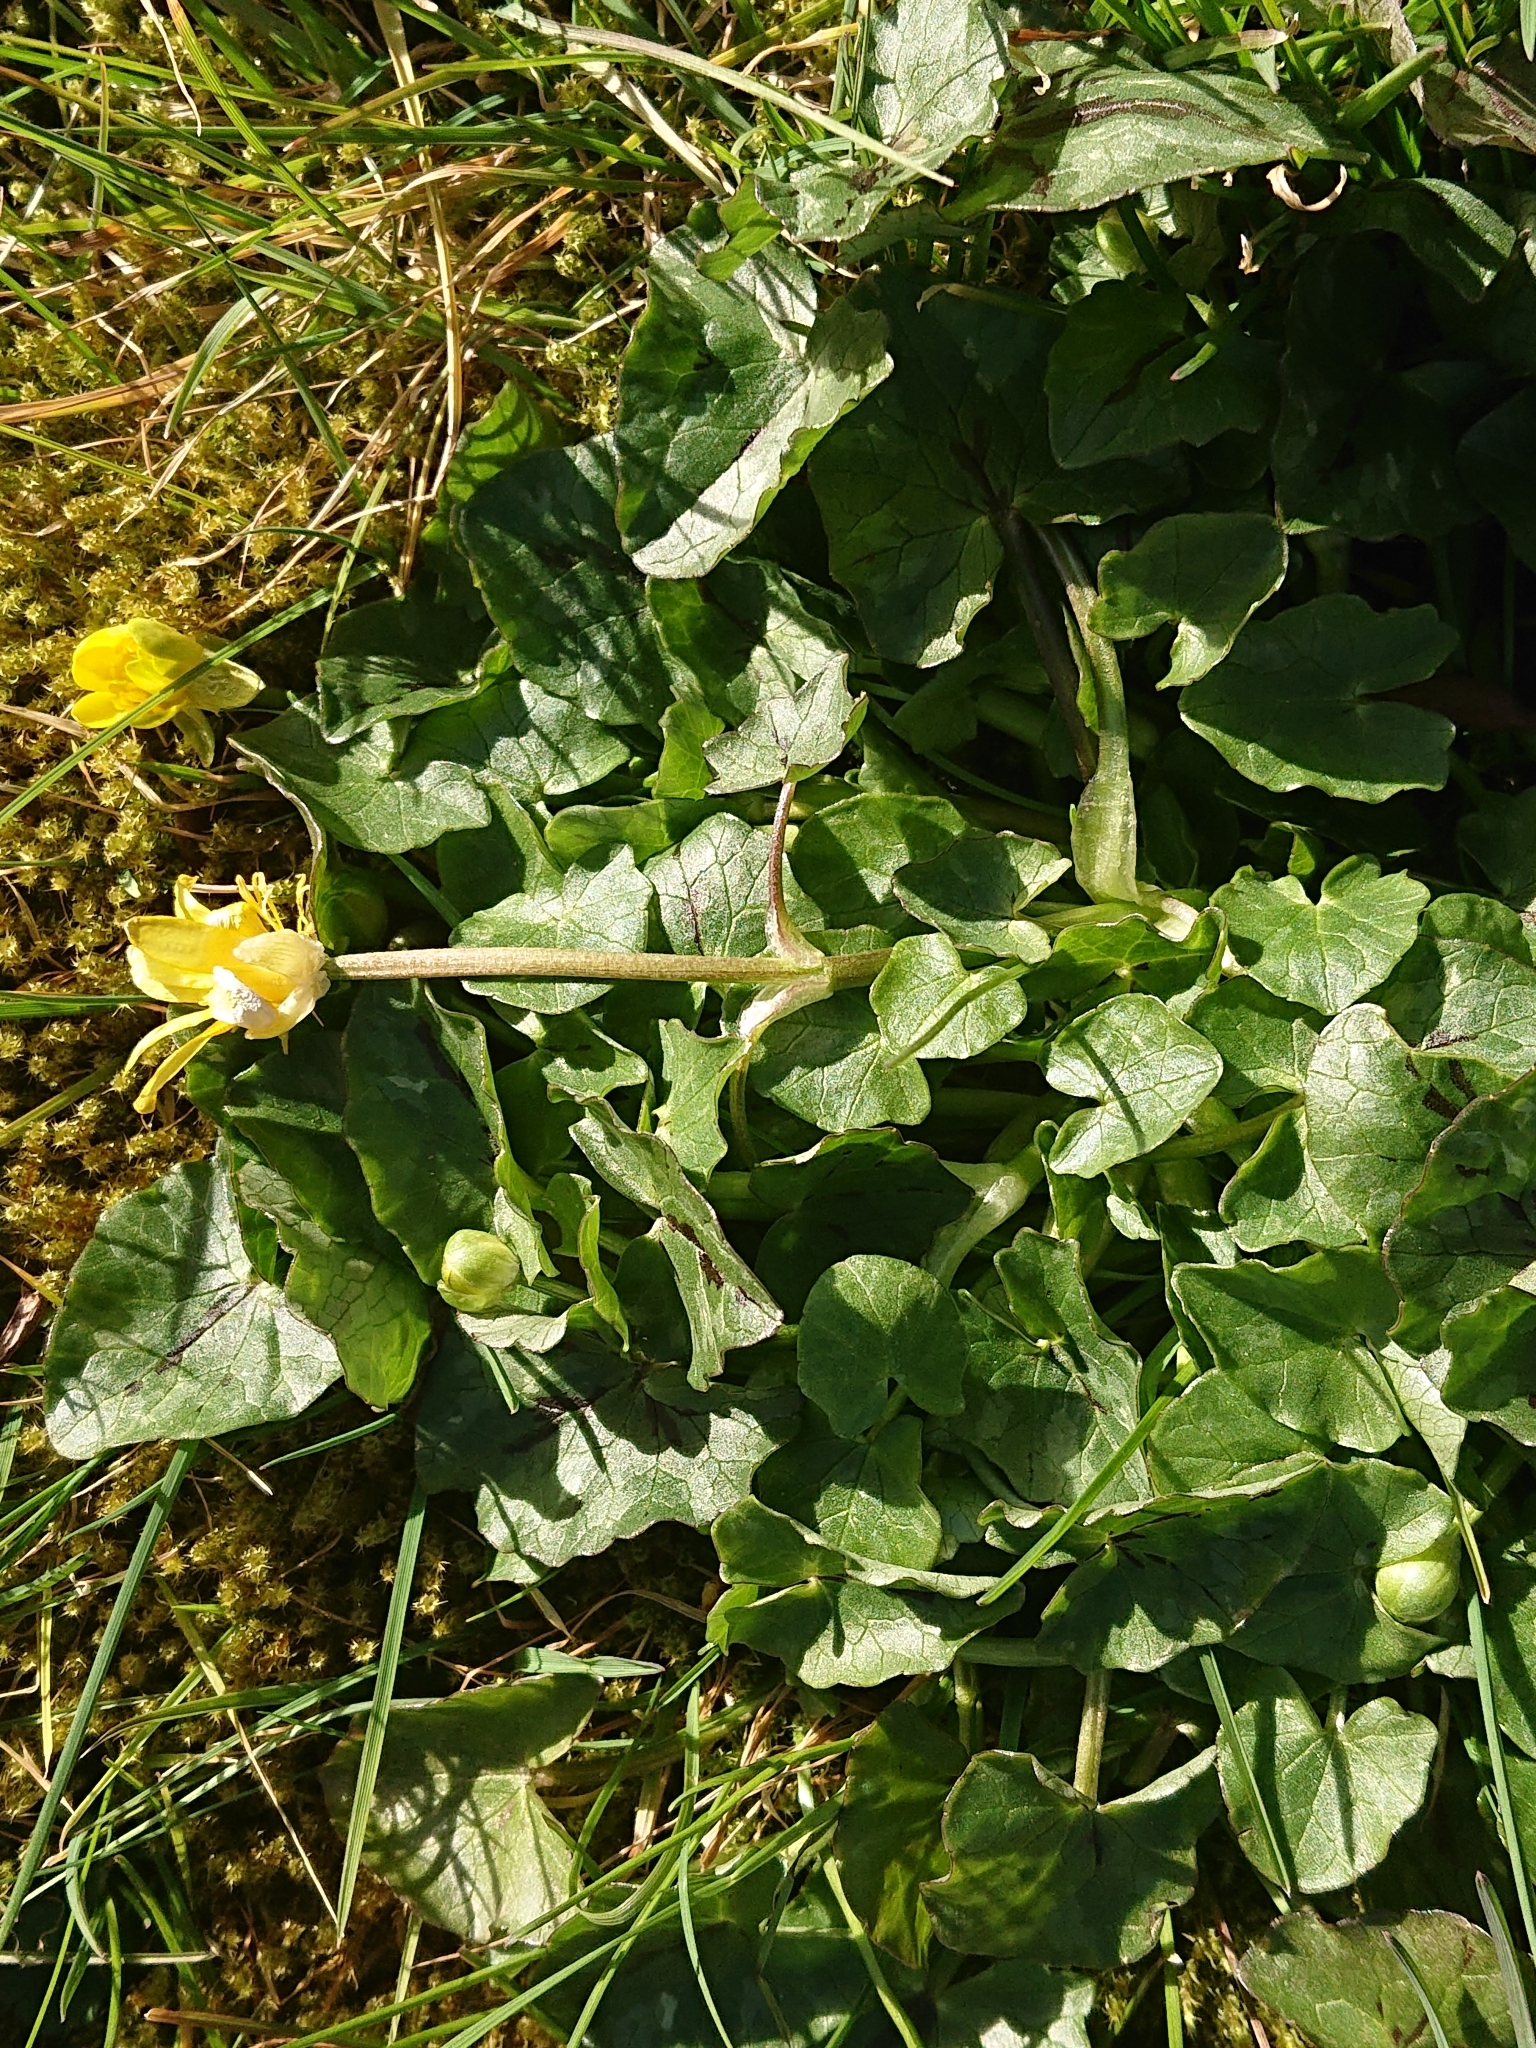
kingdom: Plantae
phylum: Tracheophyta
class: Magnoliopsida
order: Ranunculales
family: Ranunculaceae
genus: Ficaria
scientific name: Ficaria verna
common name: Lesser celandine
